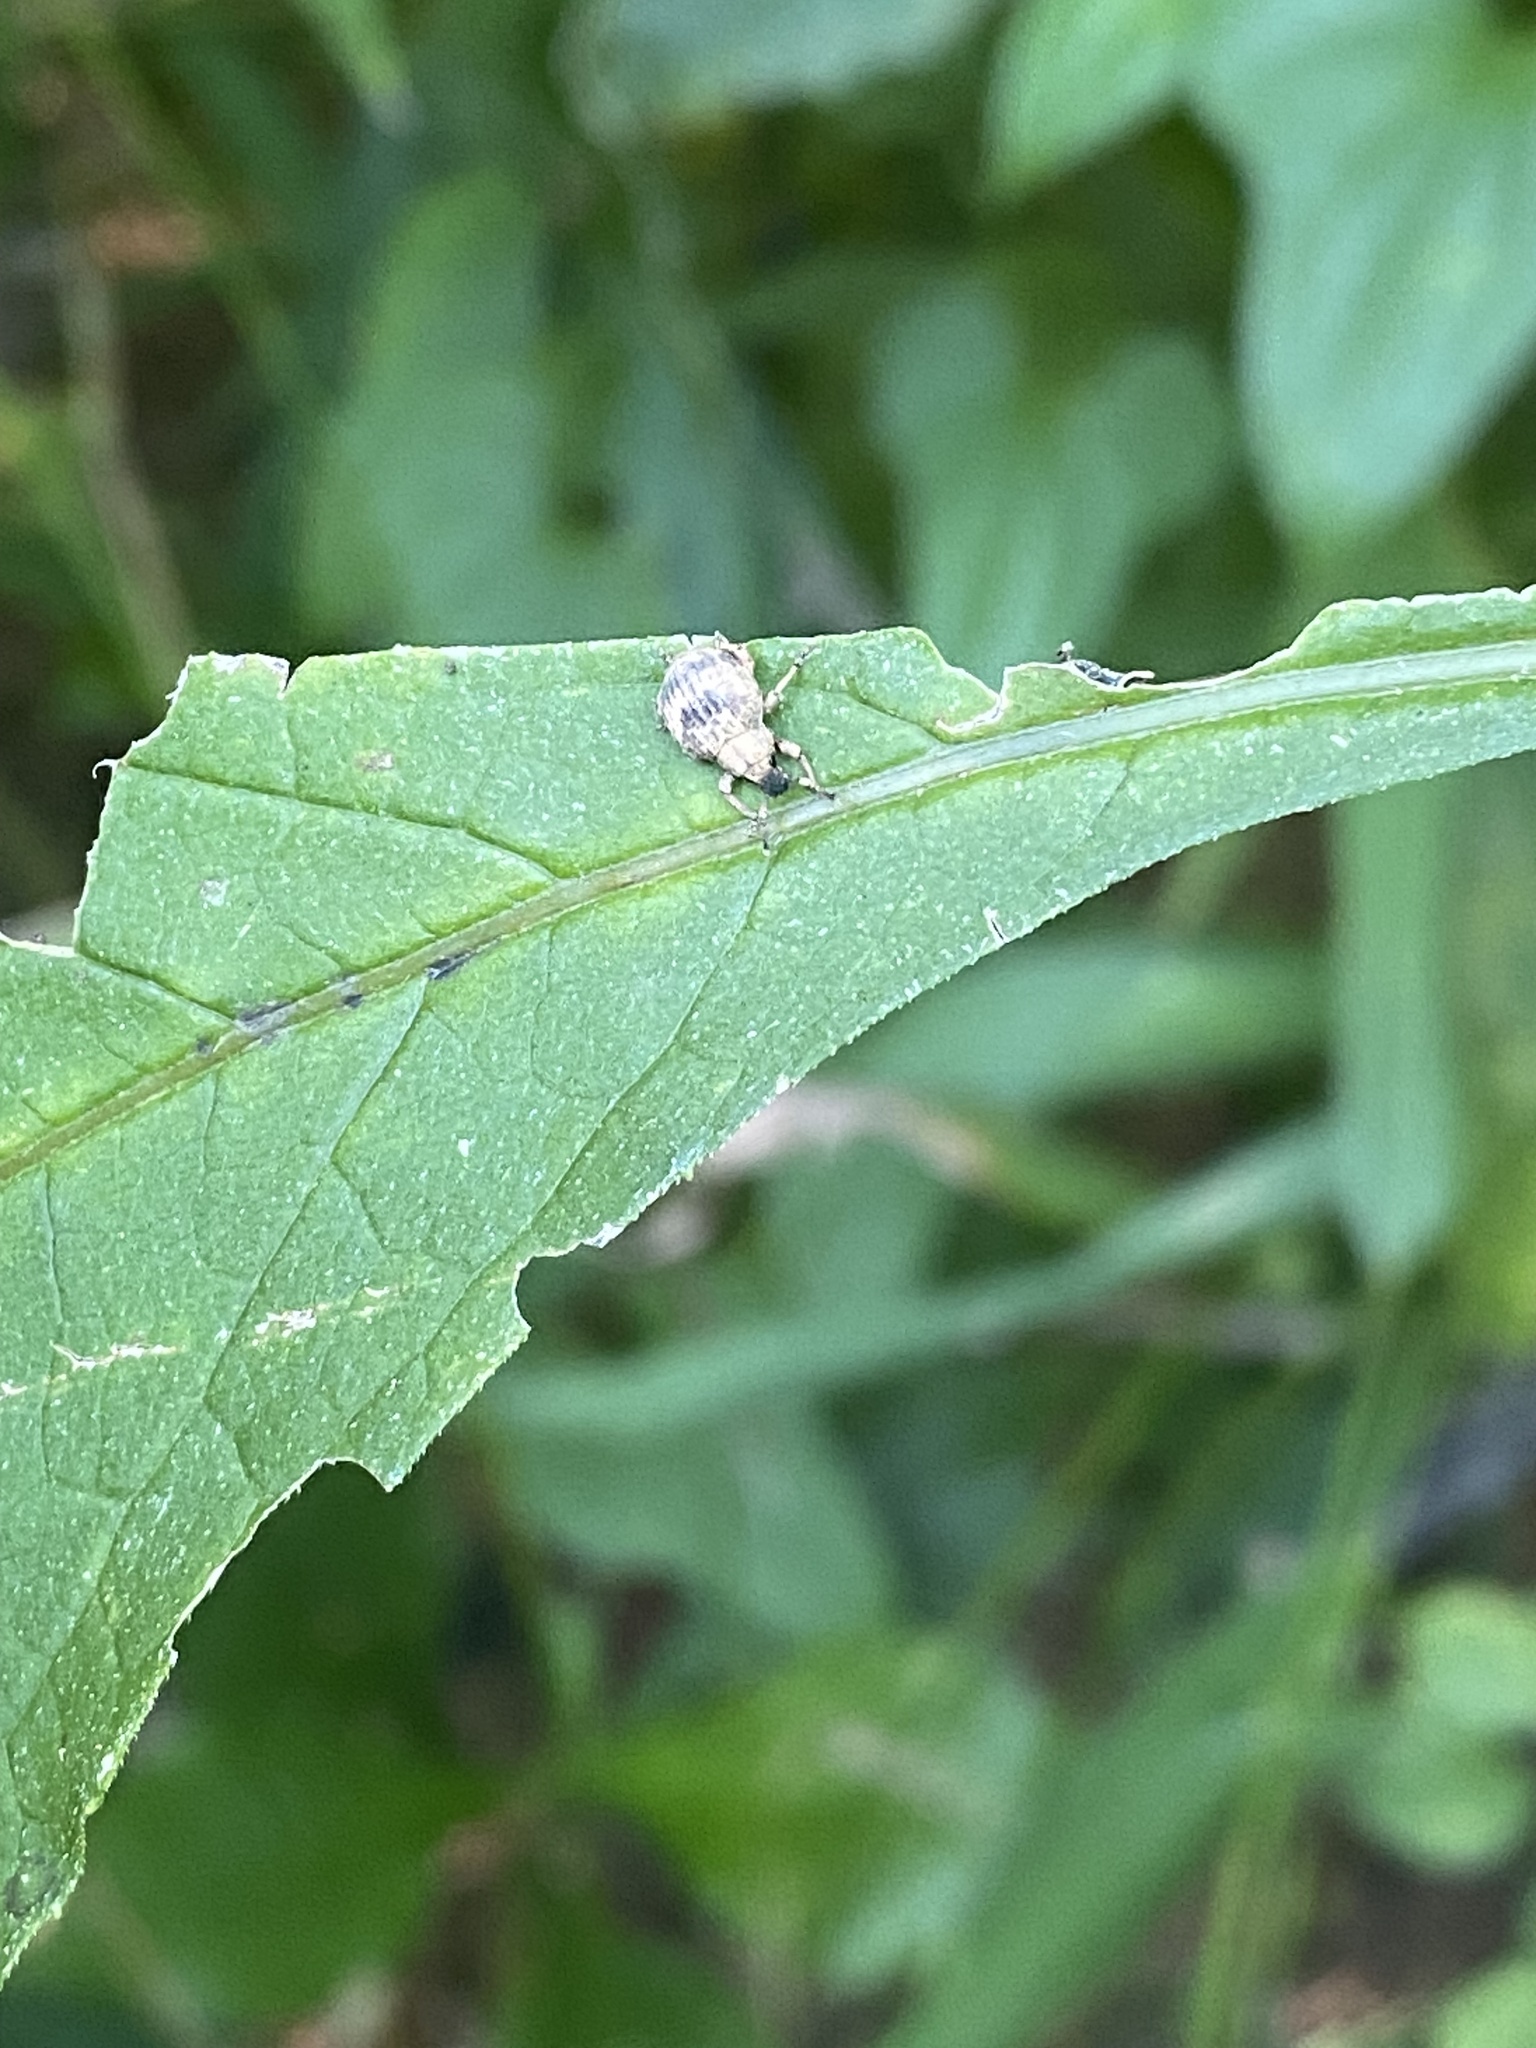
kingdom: Animalia
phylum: Arthropoda
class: Insecta
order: Coleoptera
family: Curculionidae
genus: Pseudocneorhinus
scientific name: Pseudocneorhinus bifasciatus
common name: Two-banded japanese weevil
